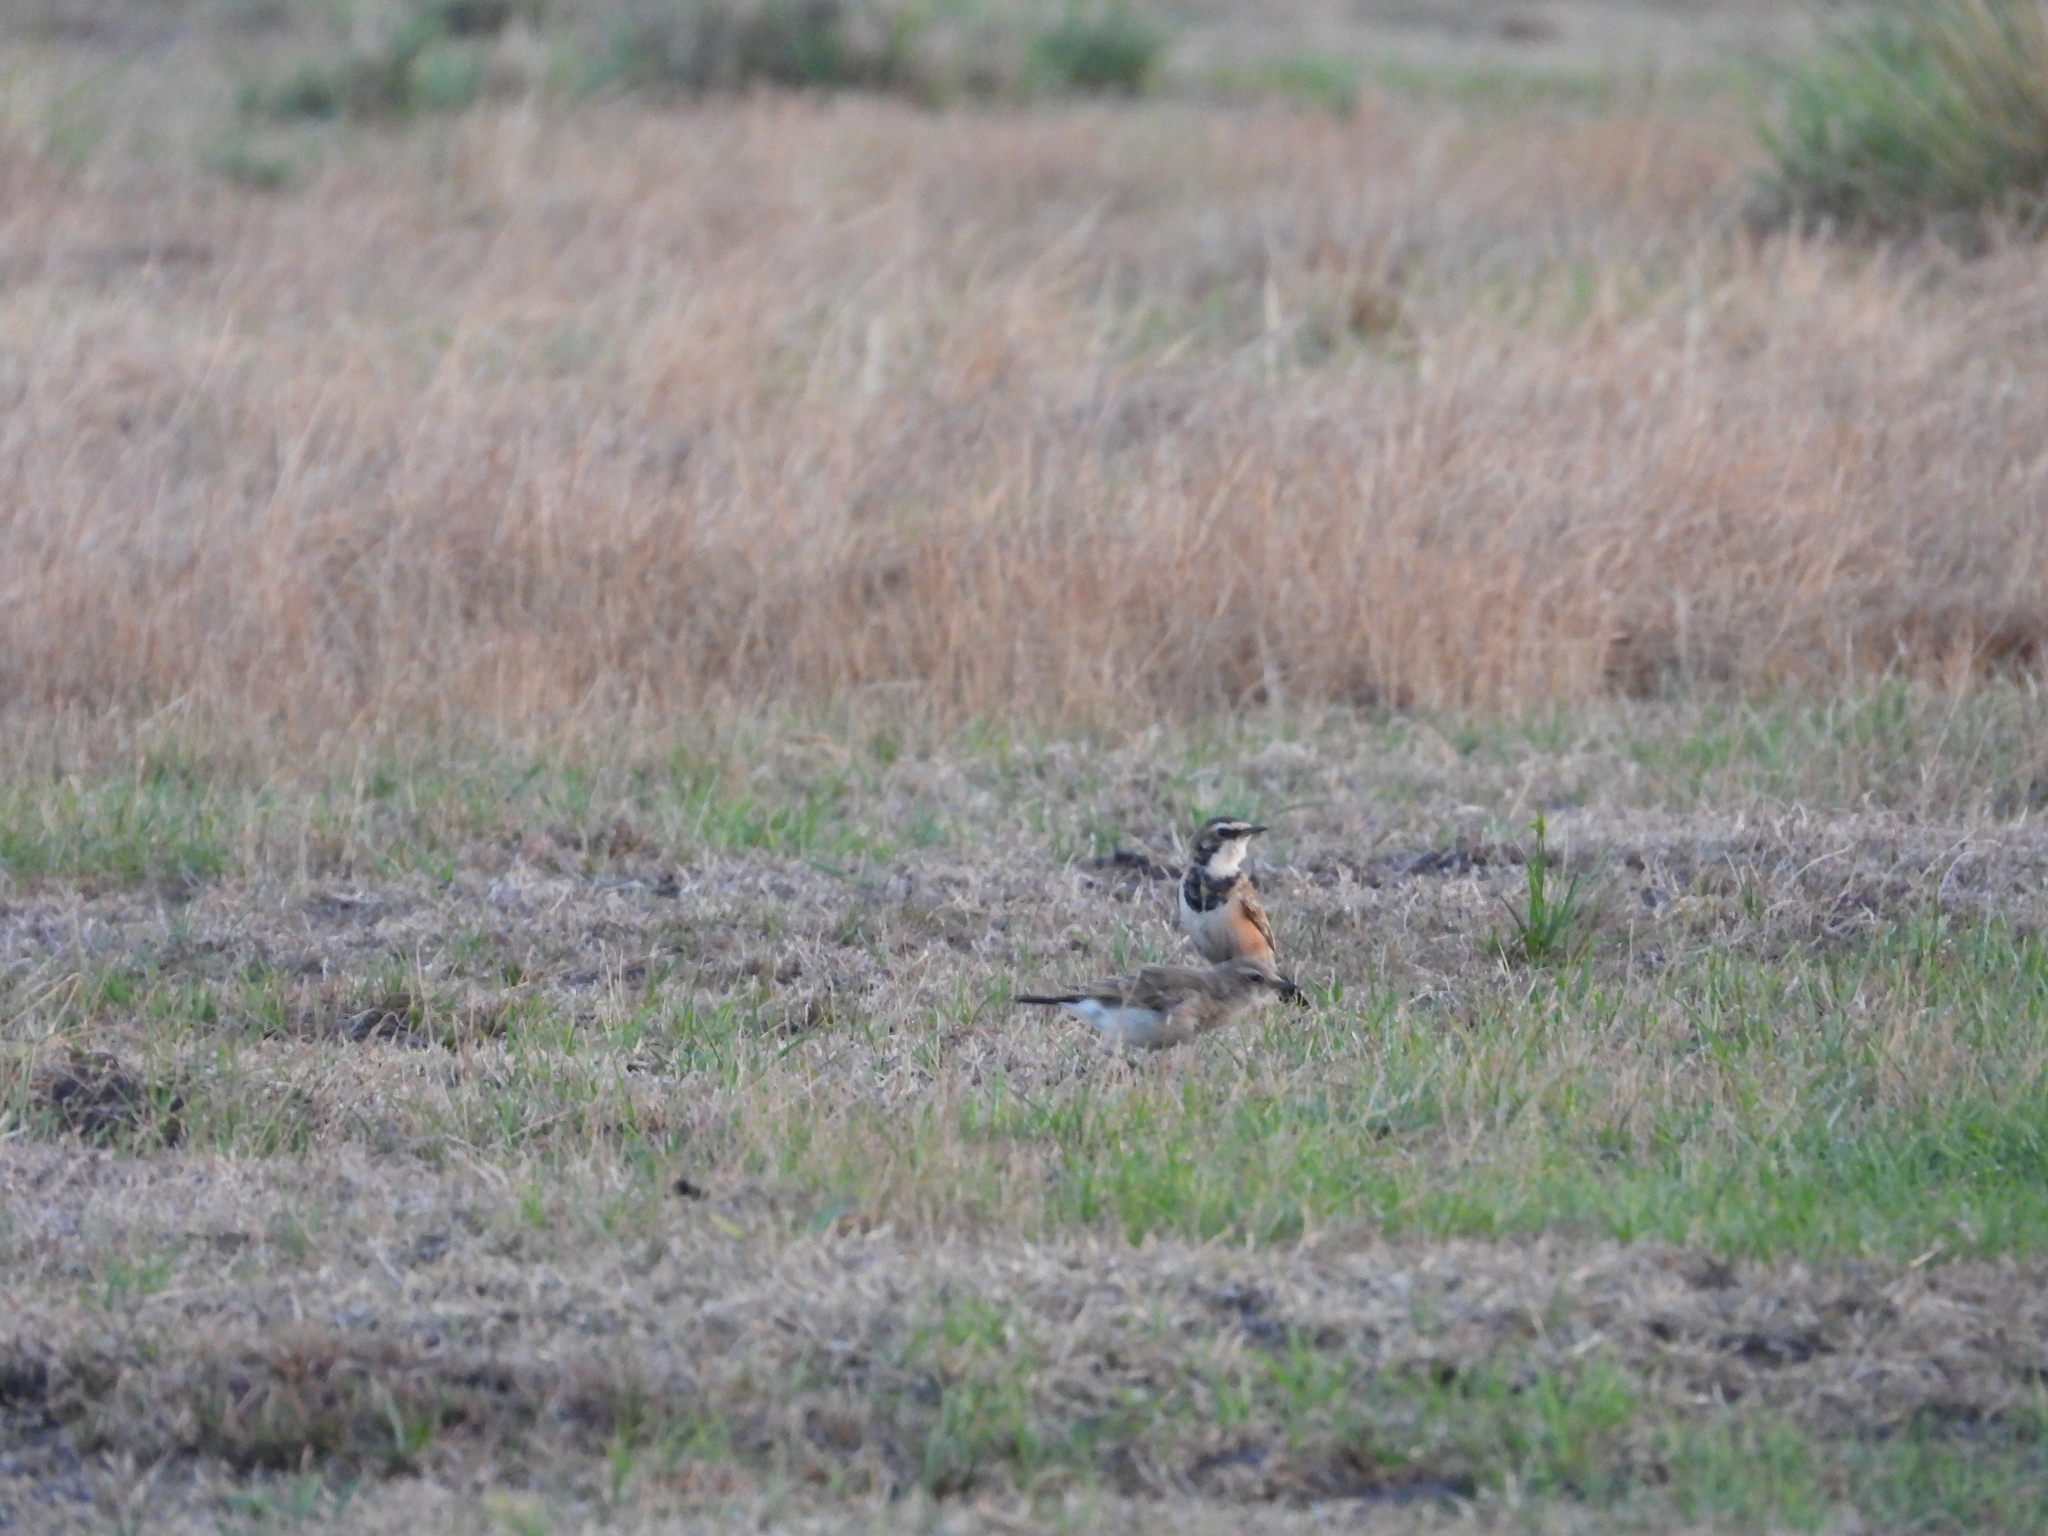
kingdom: Animalia
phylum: Chordata
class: Aves
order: Passeriformes
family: Muscicapidae
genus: Oenanthe
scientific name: Oenanthe pileata
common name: Capped wheatear
